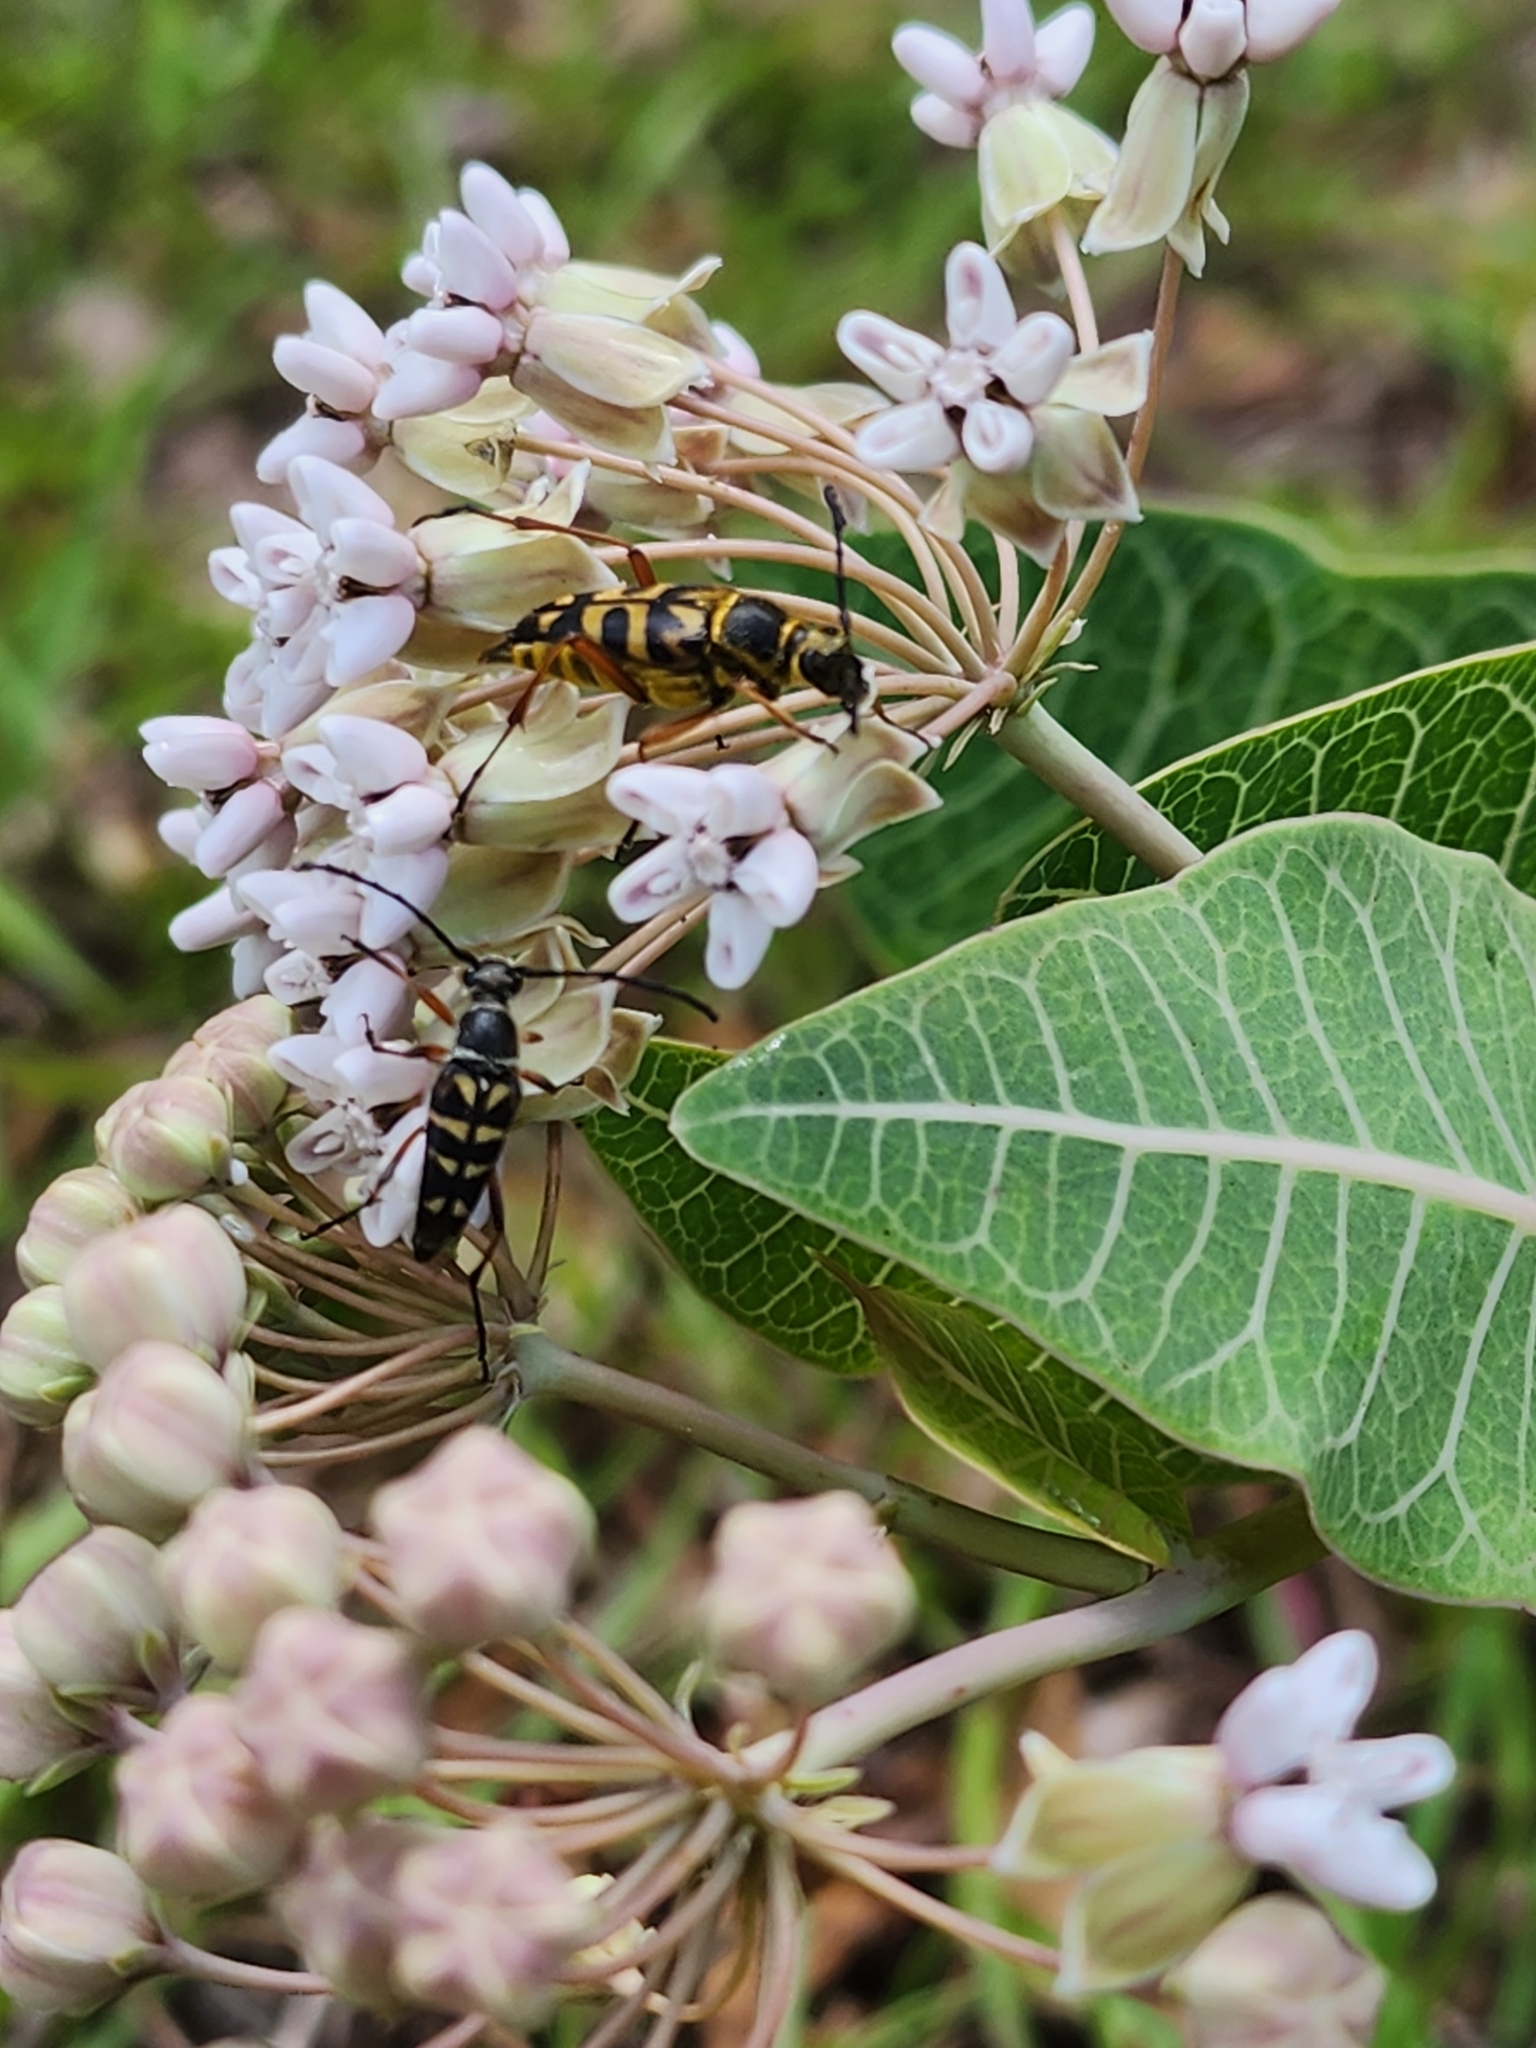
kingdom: Plantae
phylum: Tracheophyta
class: Magnoliopsida
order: Gentianales
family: Apocynaceae
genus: Asclepias
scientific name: Asclepias humistrata
